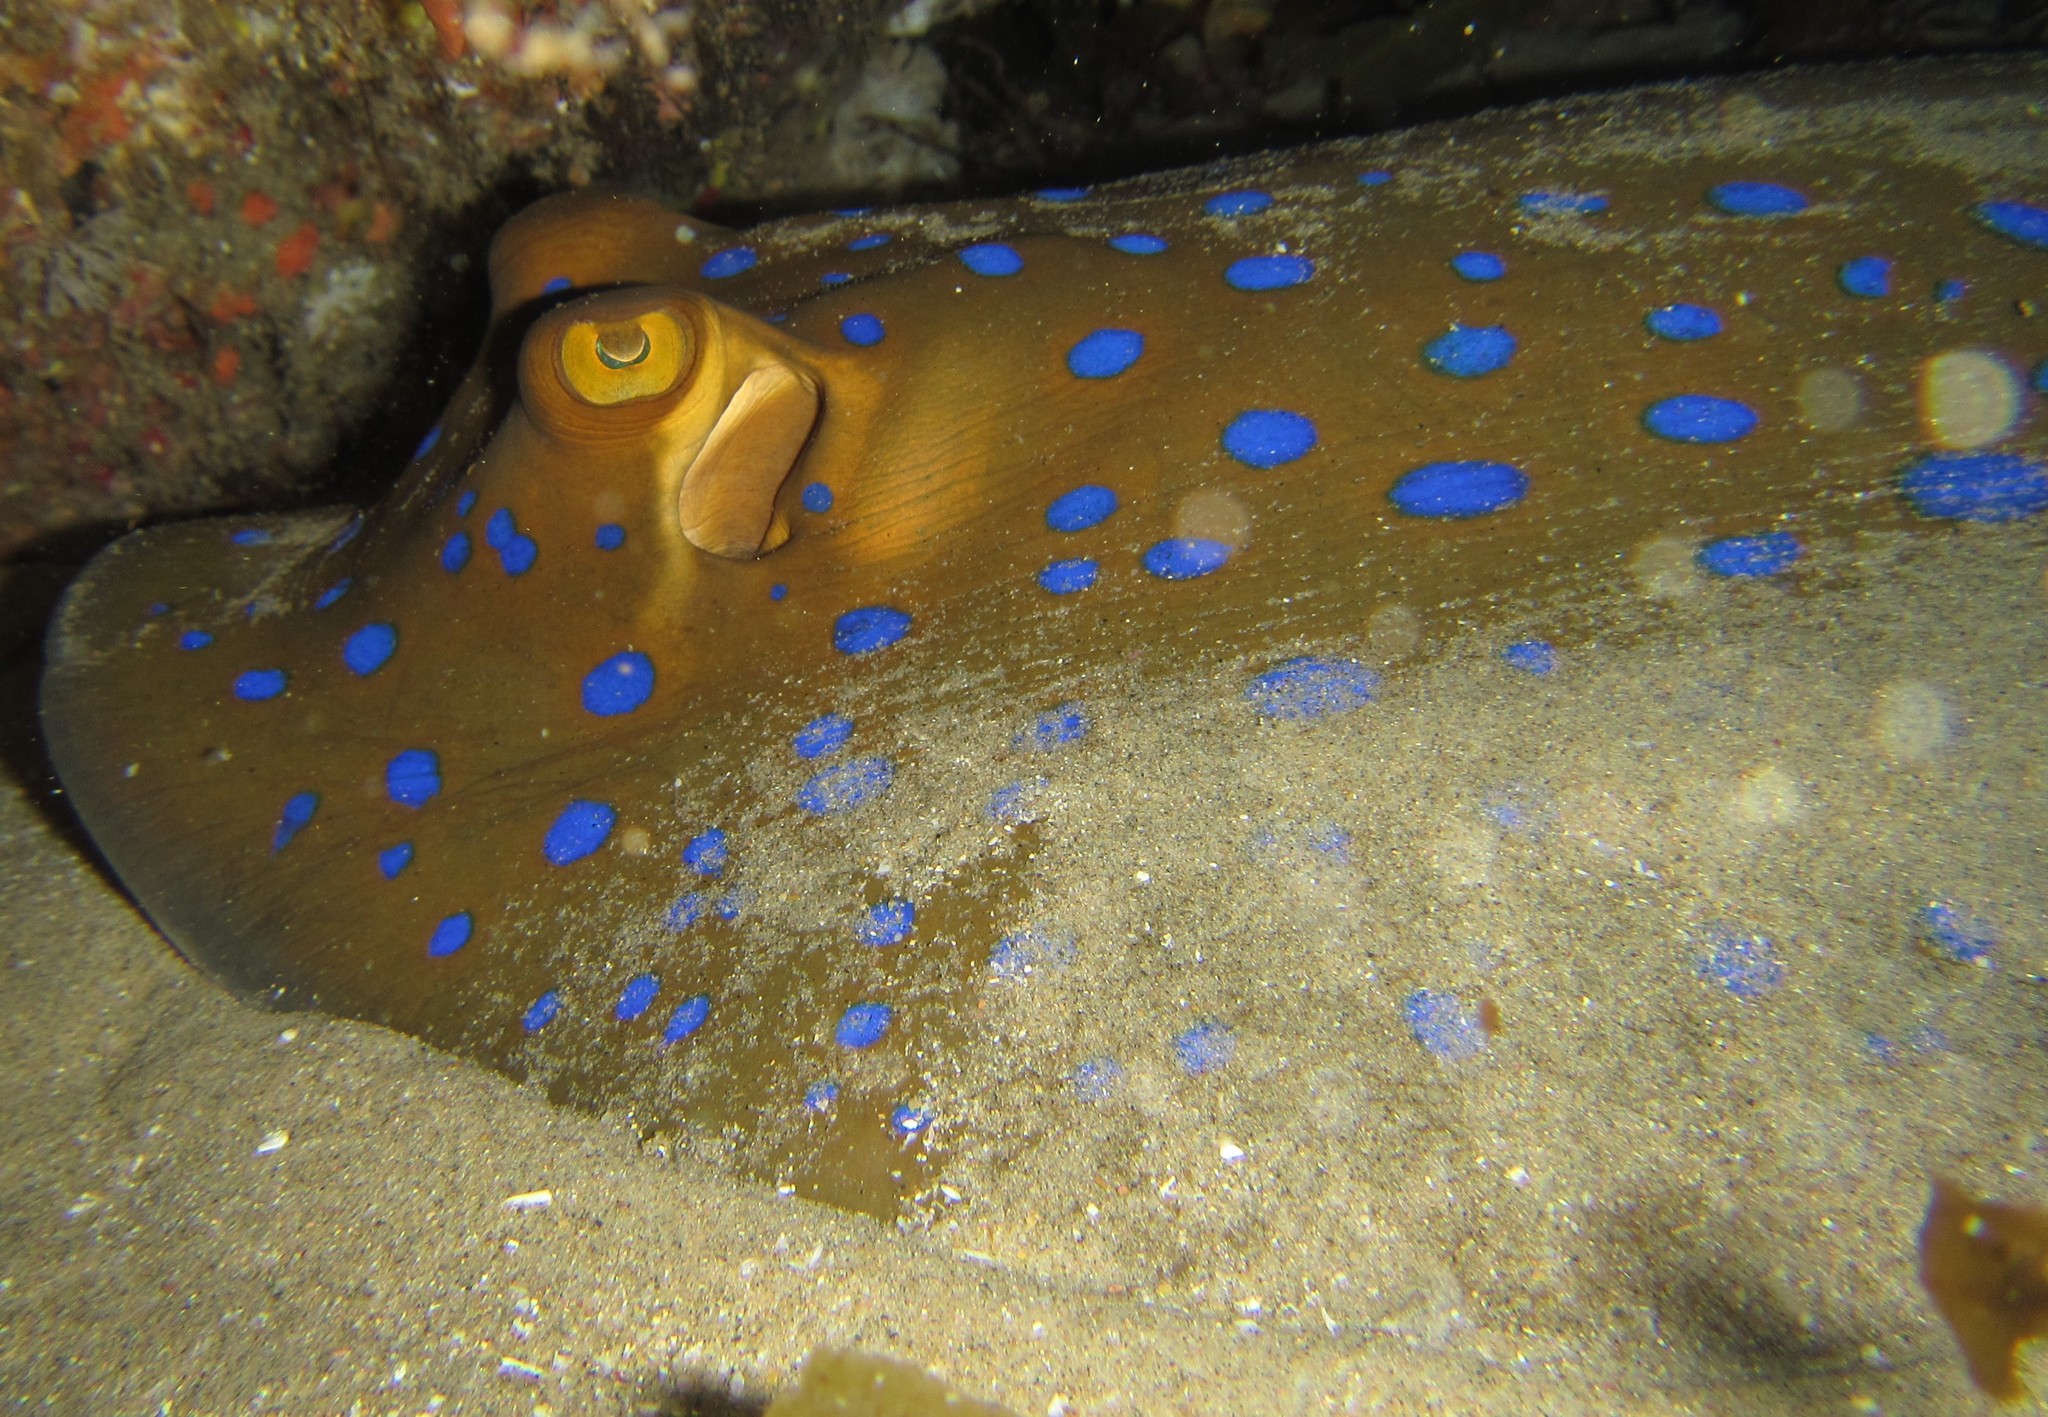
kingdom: Animalia
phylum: Chordata
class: Elasmobranchii
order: Myliobatiformes
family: Dasyatidae
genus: Taeniura
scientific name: Taeniura lymma
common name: Bluespotted ribbontail ray
